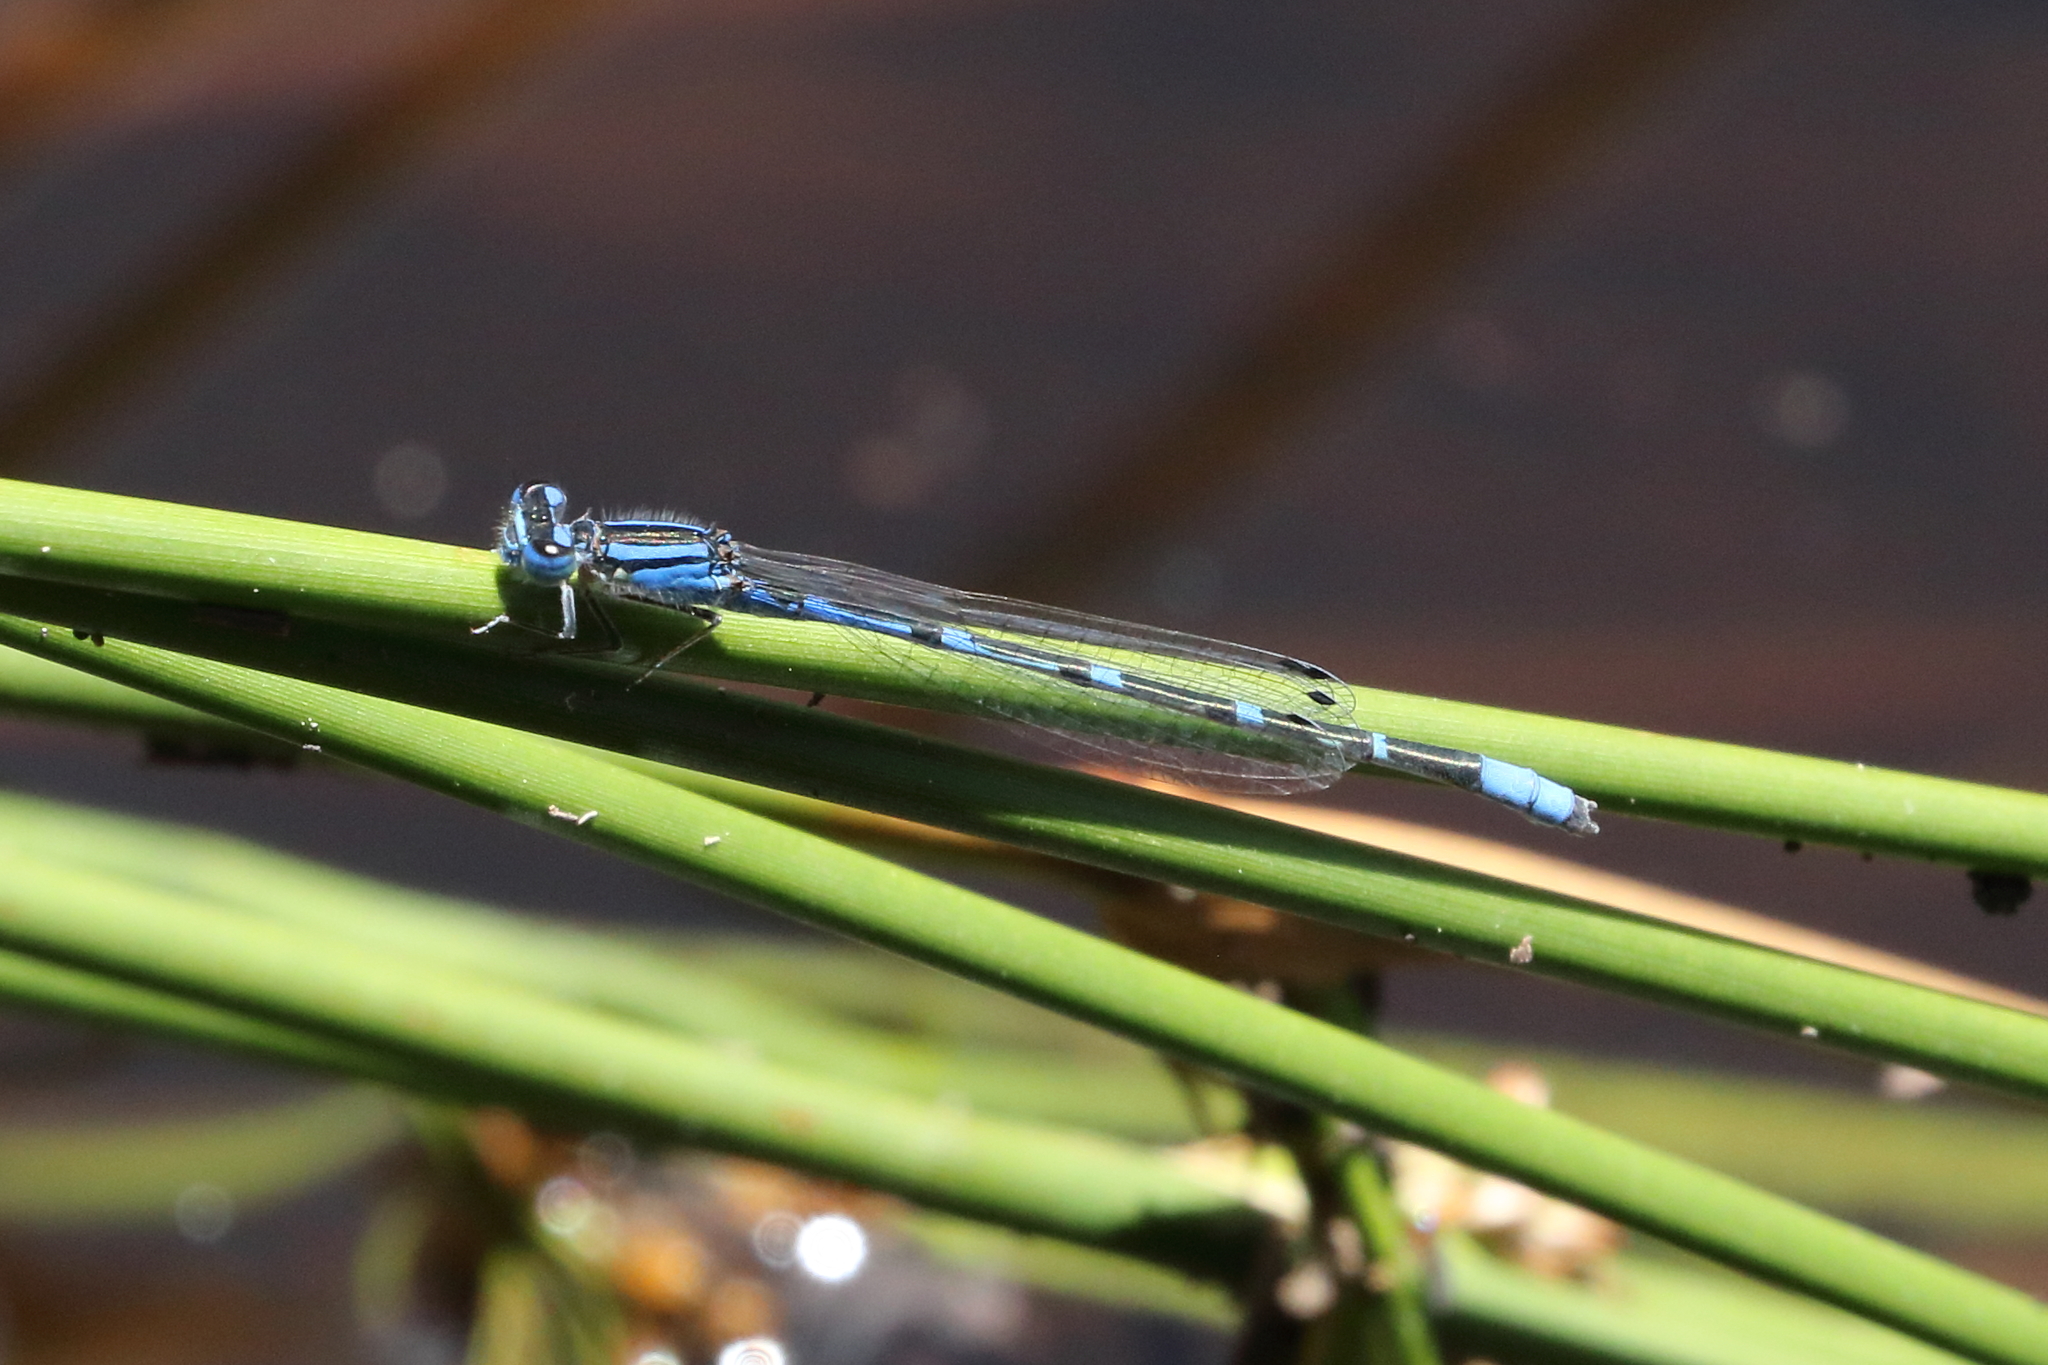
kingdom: Animalia
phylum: Arthropoda
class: Insecta
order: Odonata
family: Coenagrionidae
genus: Enallagma
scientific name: Enallagma praevarum
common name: Arroyo bluet
